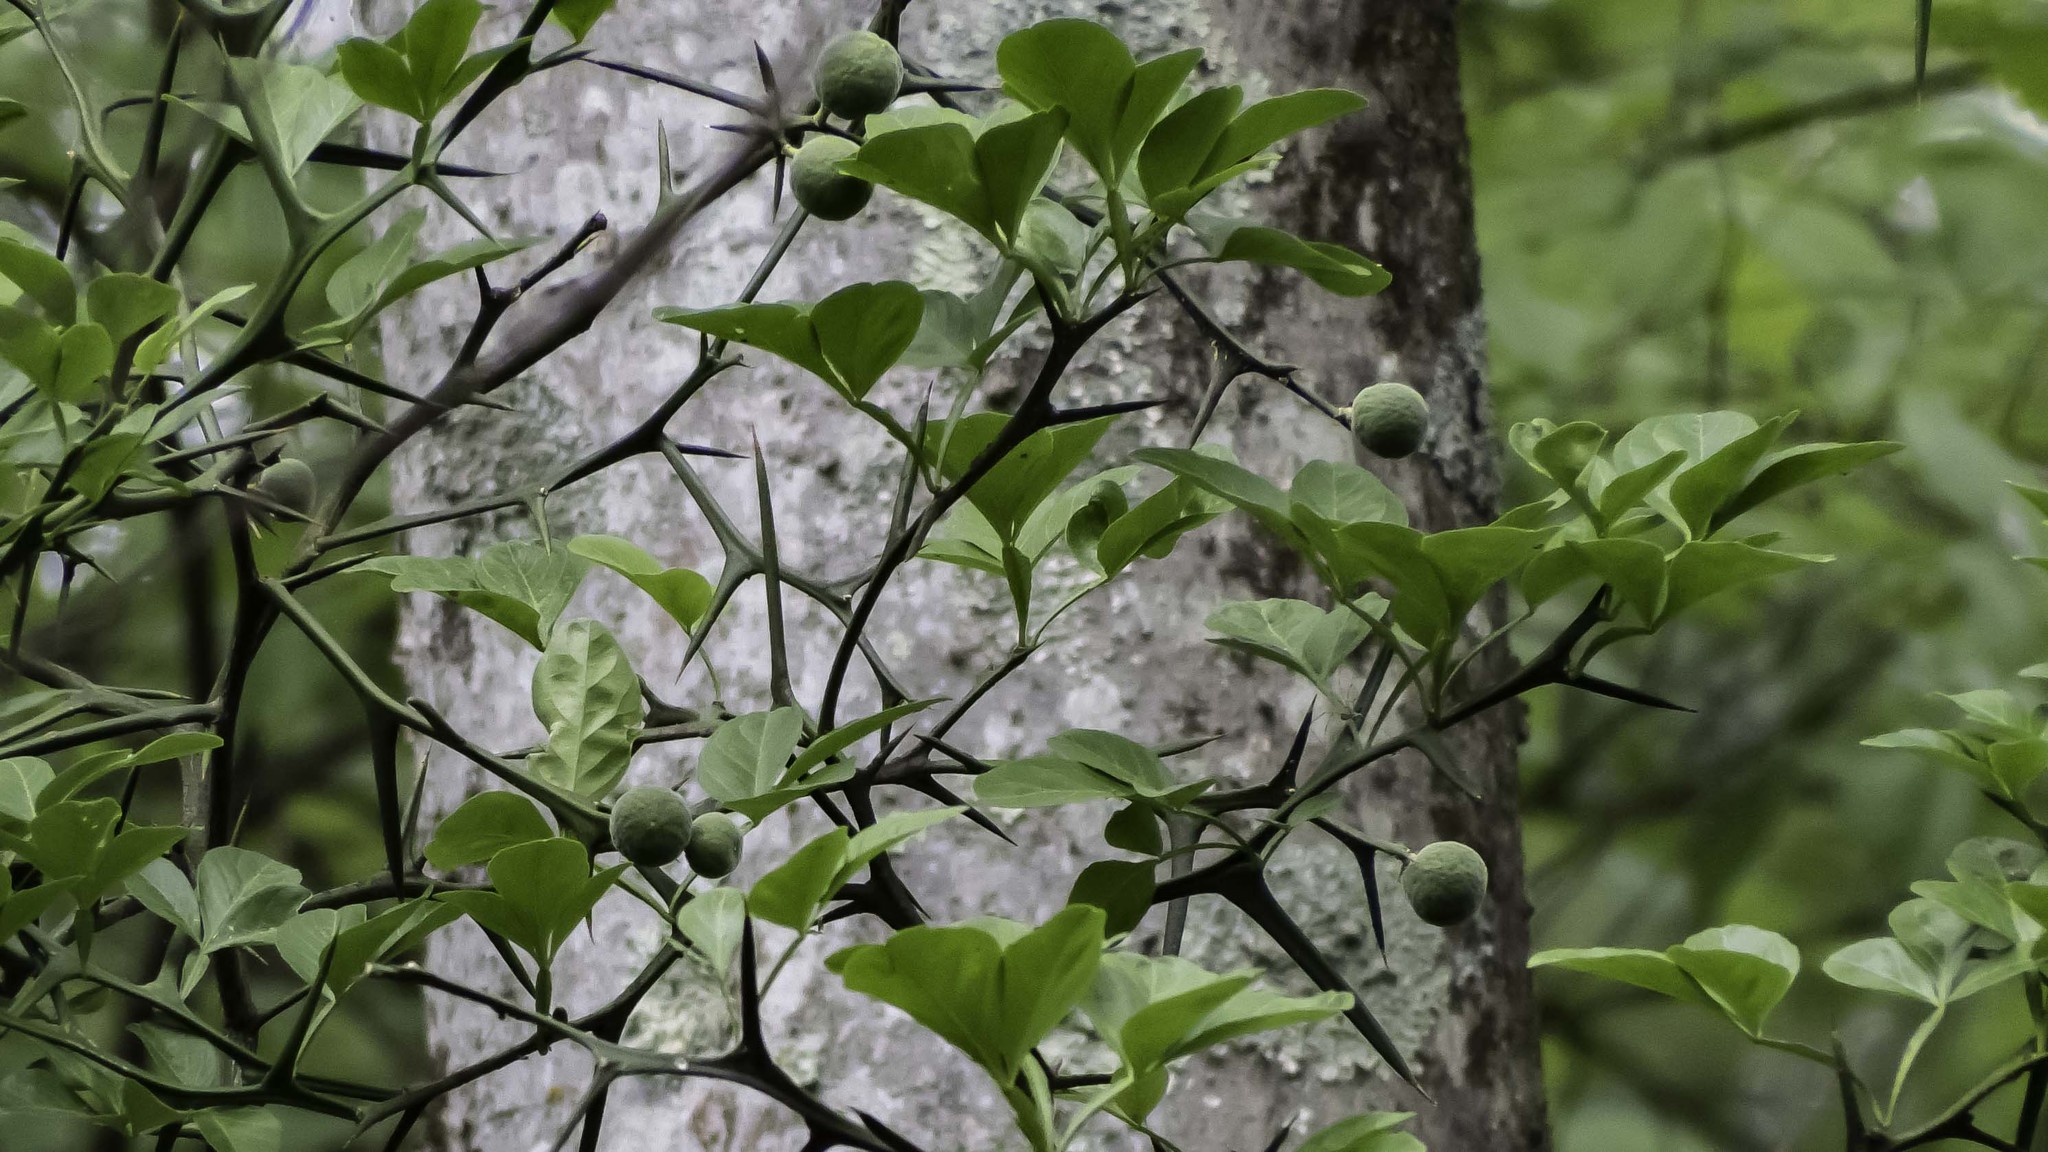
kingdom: Plantae
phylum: Tracheophyta
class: Magnoliopsida
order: Sapindales
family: Rutaceae
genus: Citrus
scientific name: Citrus trifoliata
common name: Japanese bitter-orange
